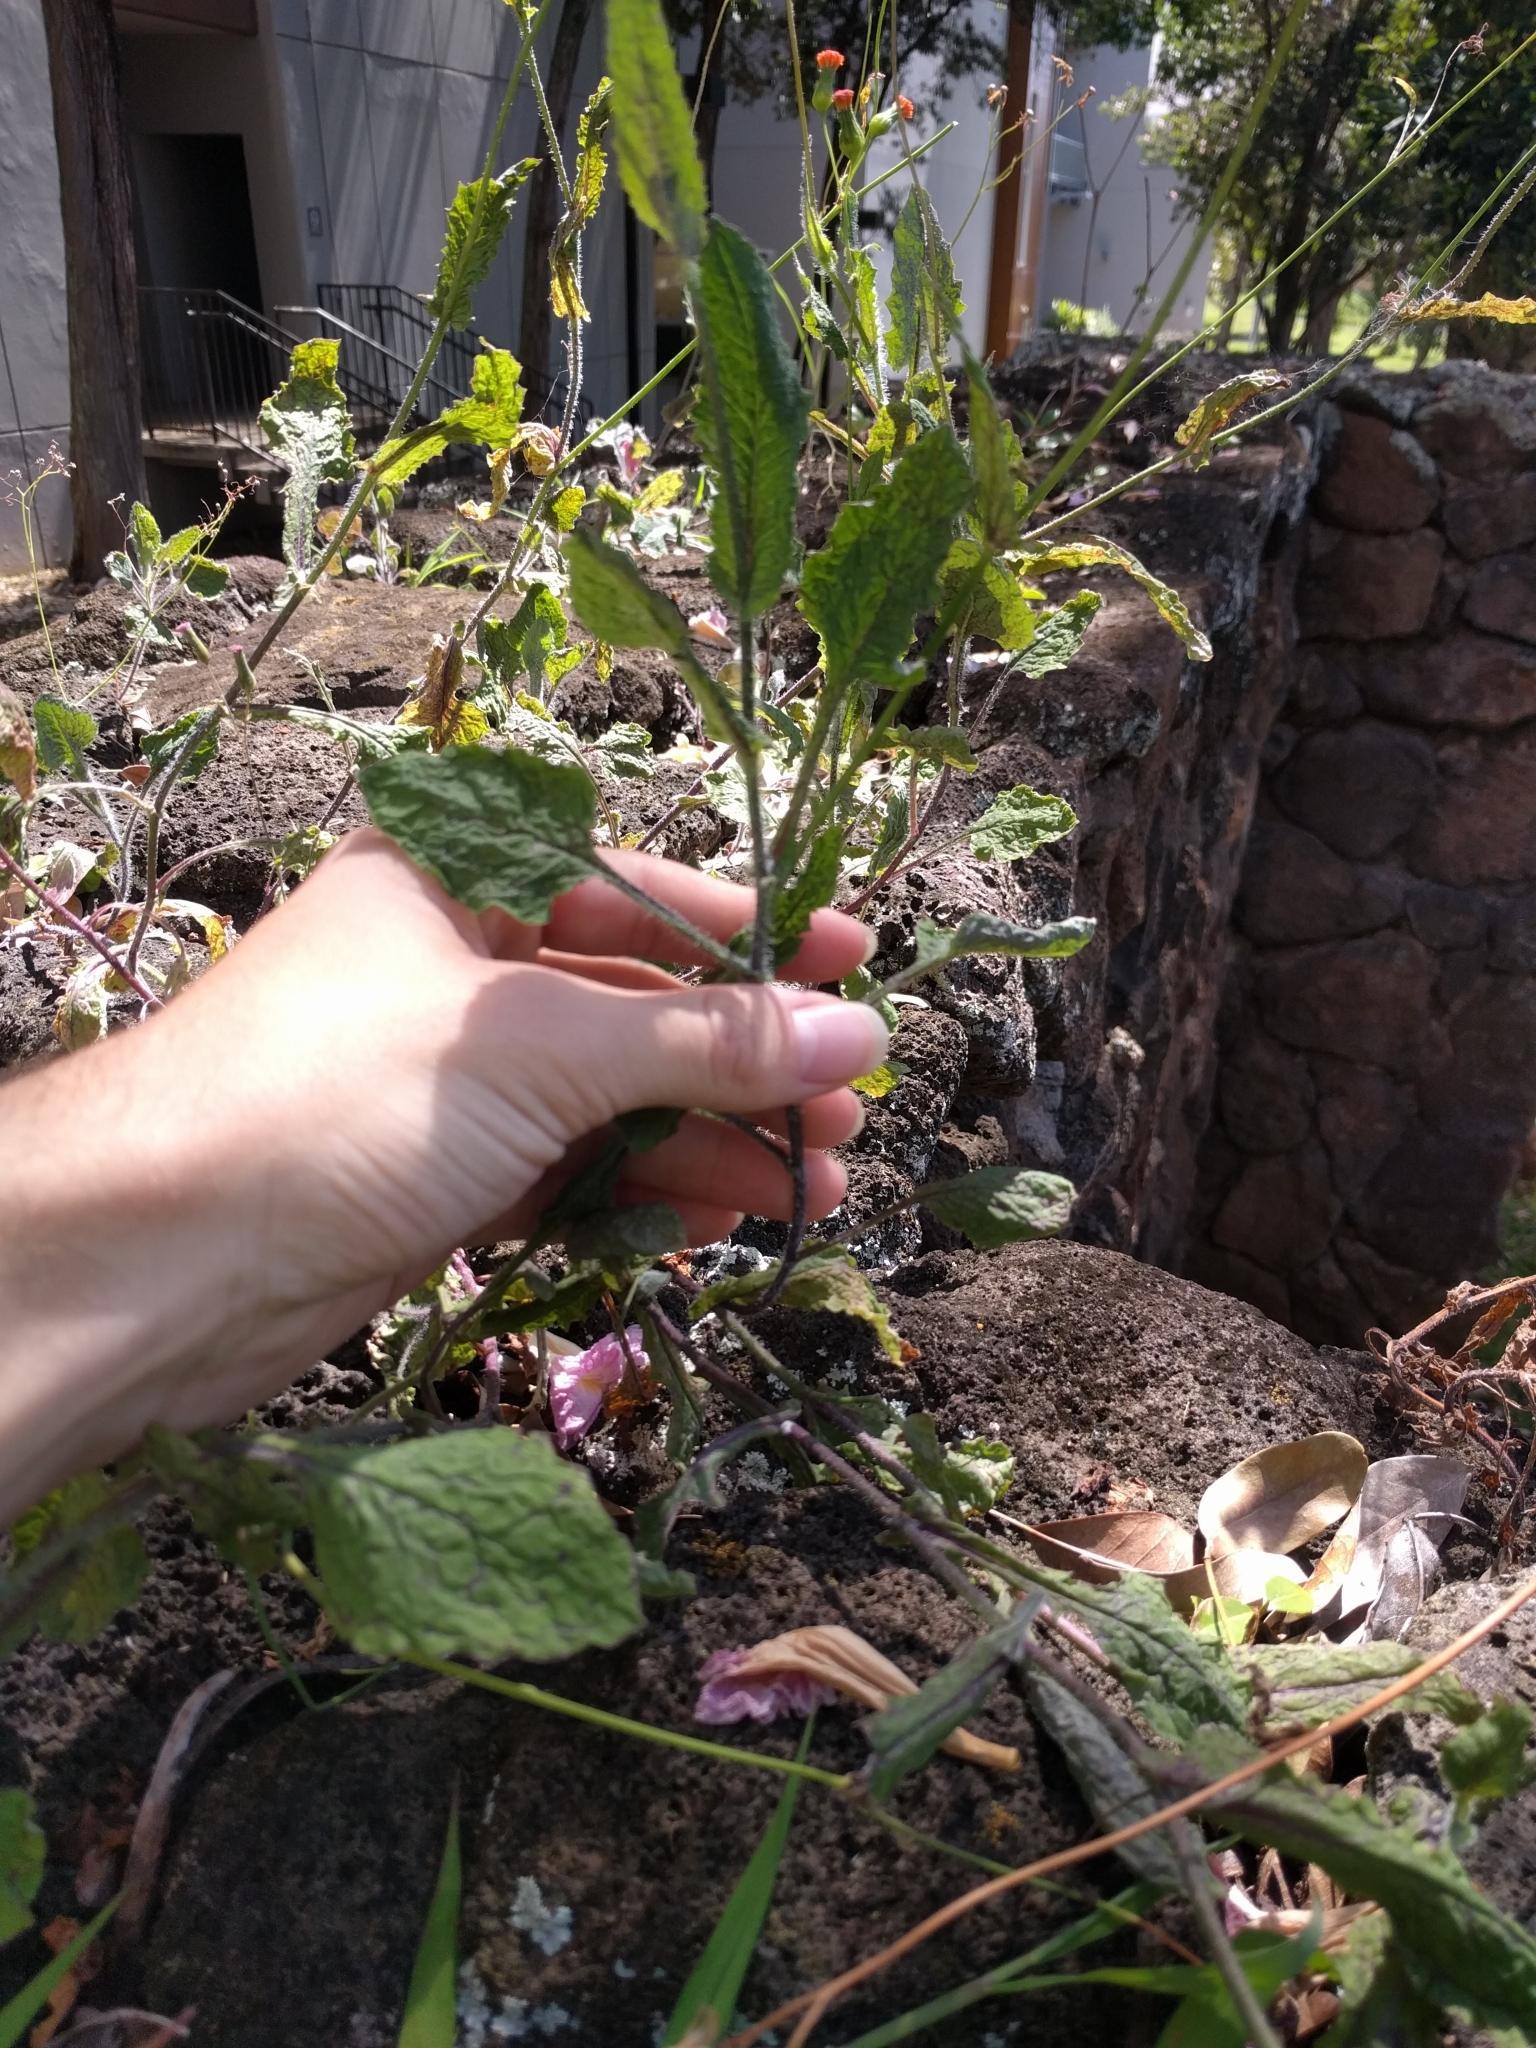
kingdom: Plantae
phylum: Tracheophyta
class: Magnoliopsida
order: Asterales
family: Asteraceae
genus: Emilia
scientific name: Emilia coccinea
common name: Scarlet tasselflower
